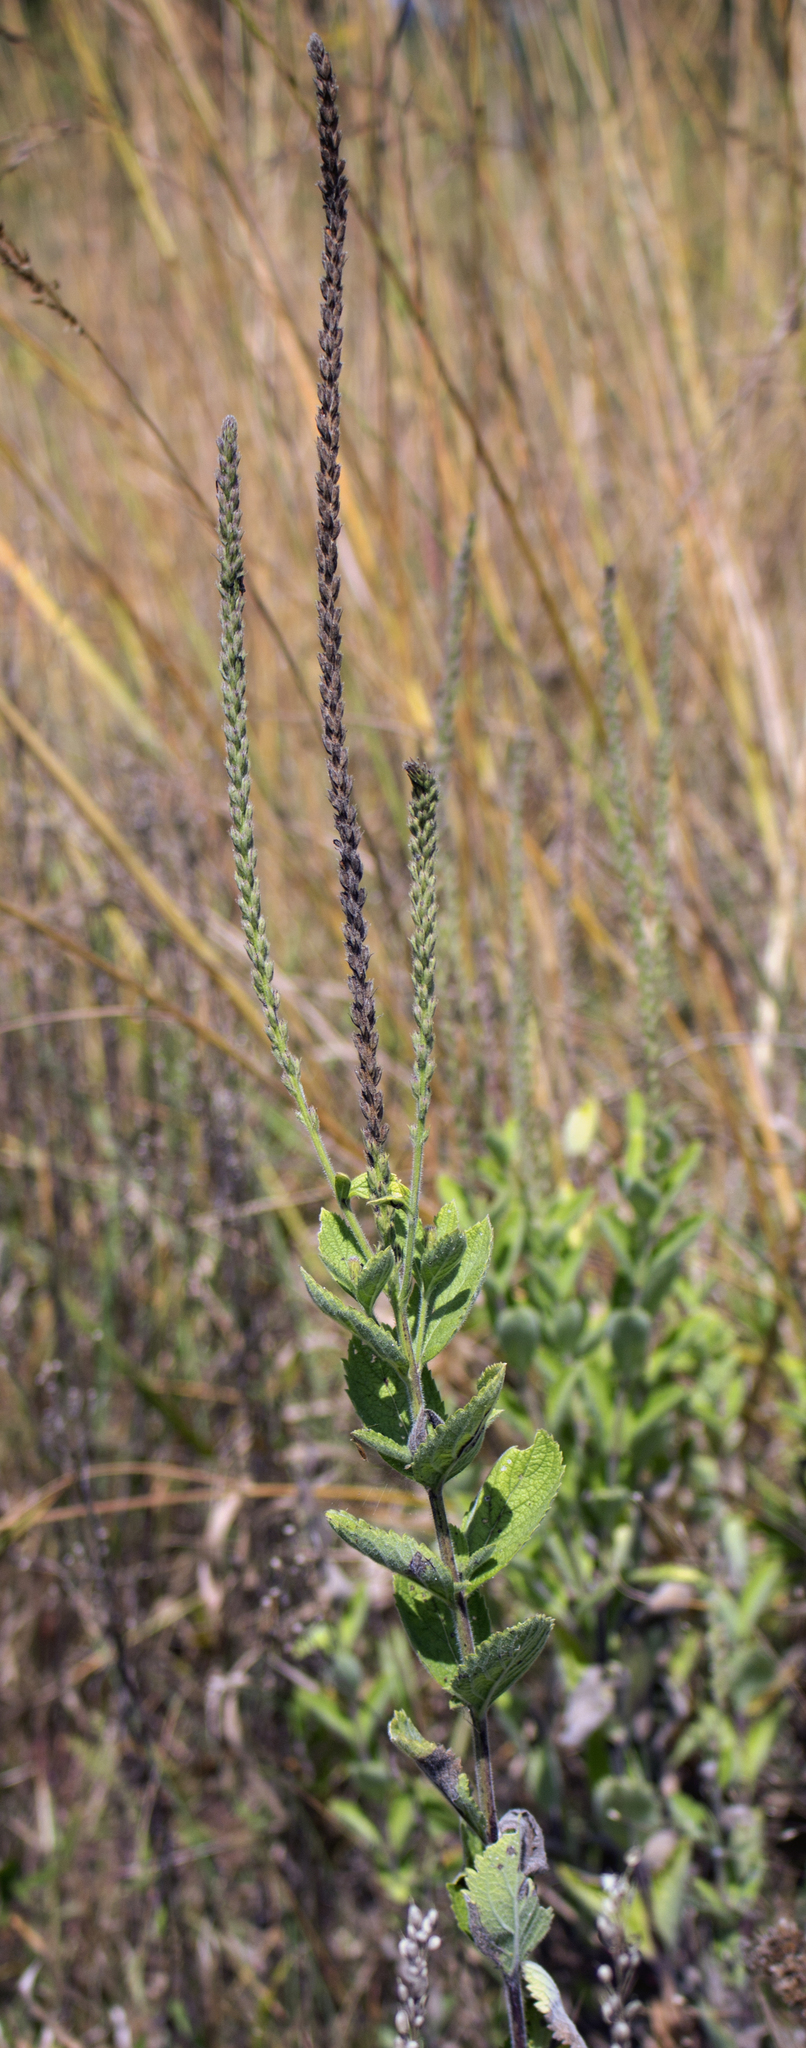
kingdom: Plantae
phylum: Tracheophyta
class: Magnoliopsida
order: Lamiales
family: Verbenaceae
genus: Verbena
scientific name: Verbena stricta
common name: Hoary vervain
